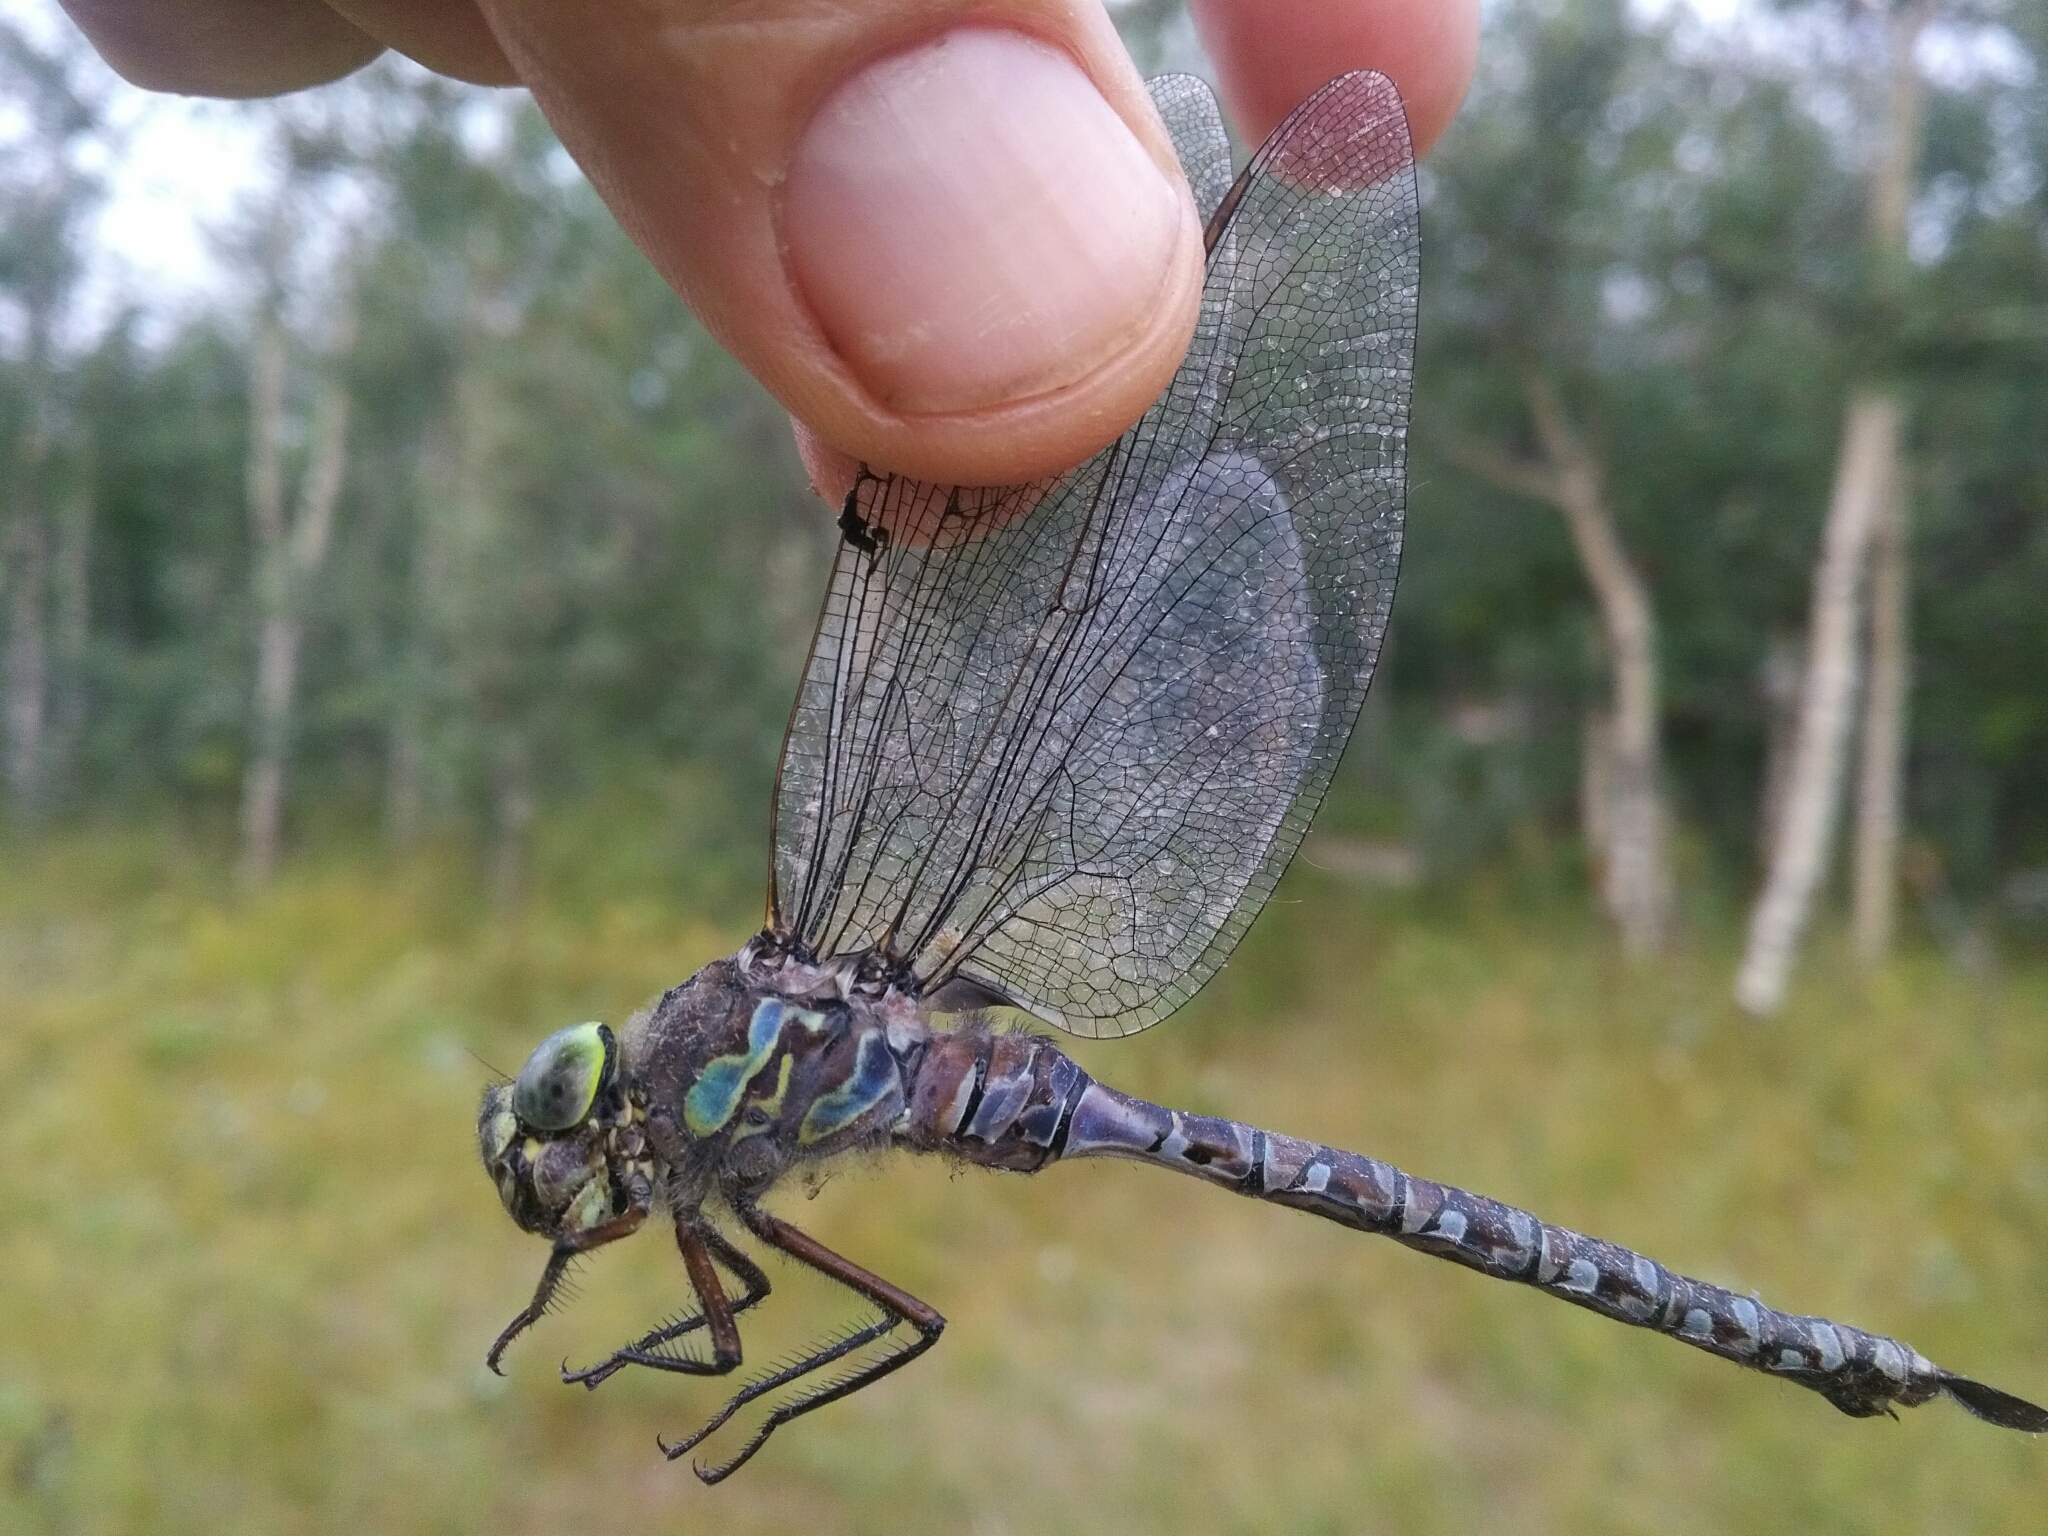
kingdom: Animalia
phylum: Arthropoda
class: Insecta
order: Odonata
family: Aeshnidae
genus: Aeshna
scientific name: Aeshna eremita
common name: Lake darner
